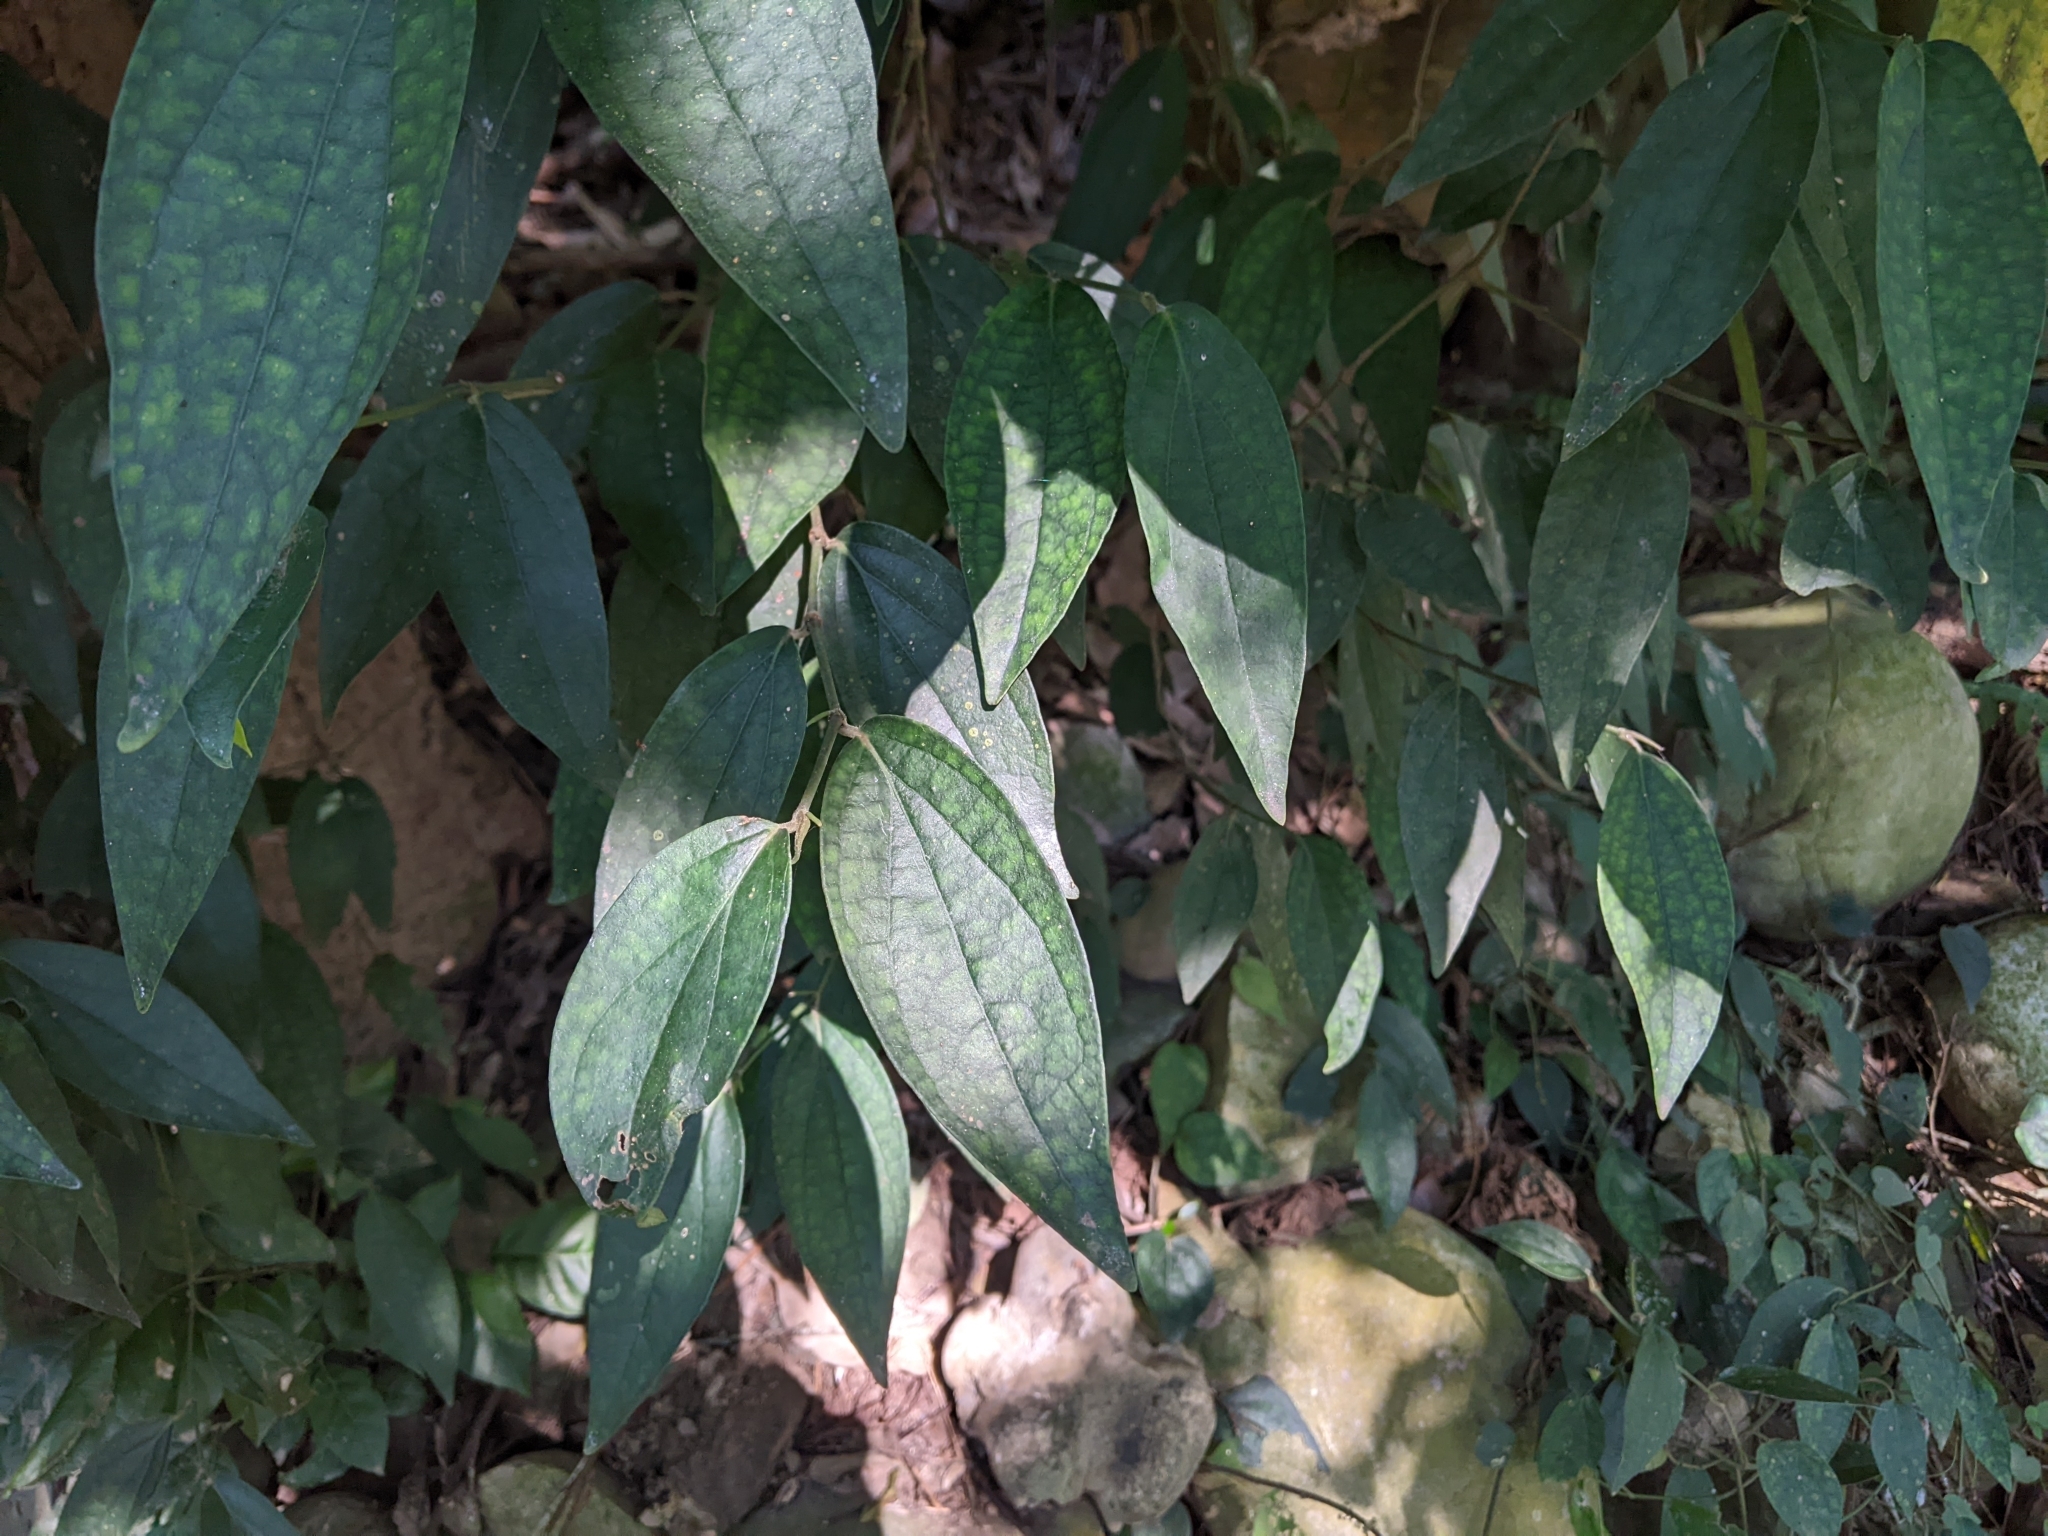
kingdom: Plantae
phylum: Tracheophyta
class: Magnoliopsida
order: Piperales
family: Piperaceae
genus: Piper
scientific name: Piper kadsura
